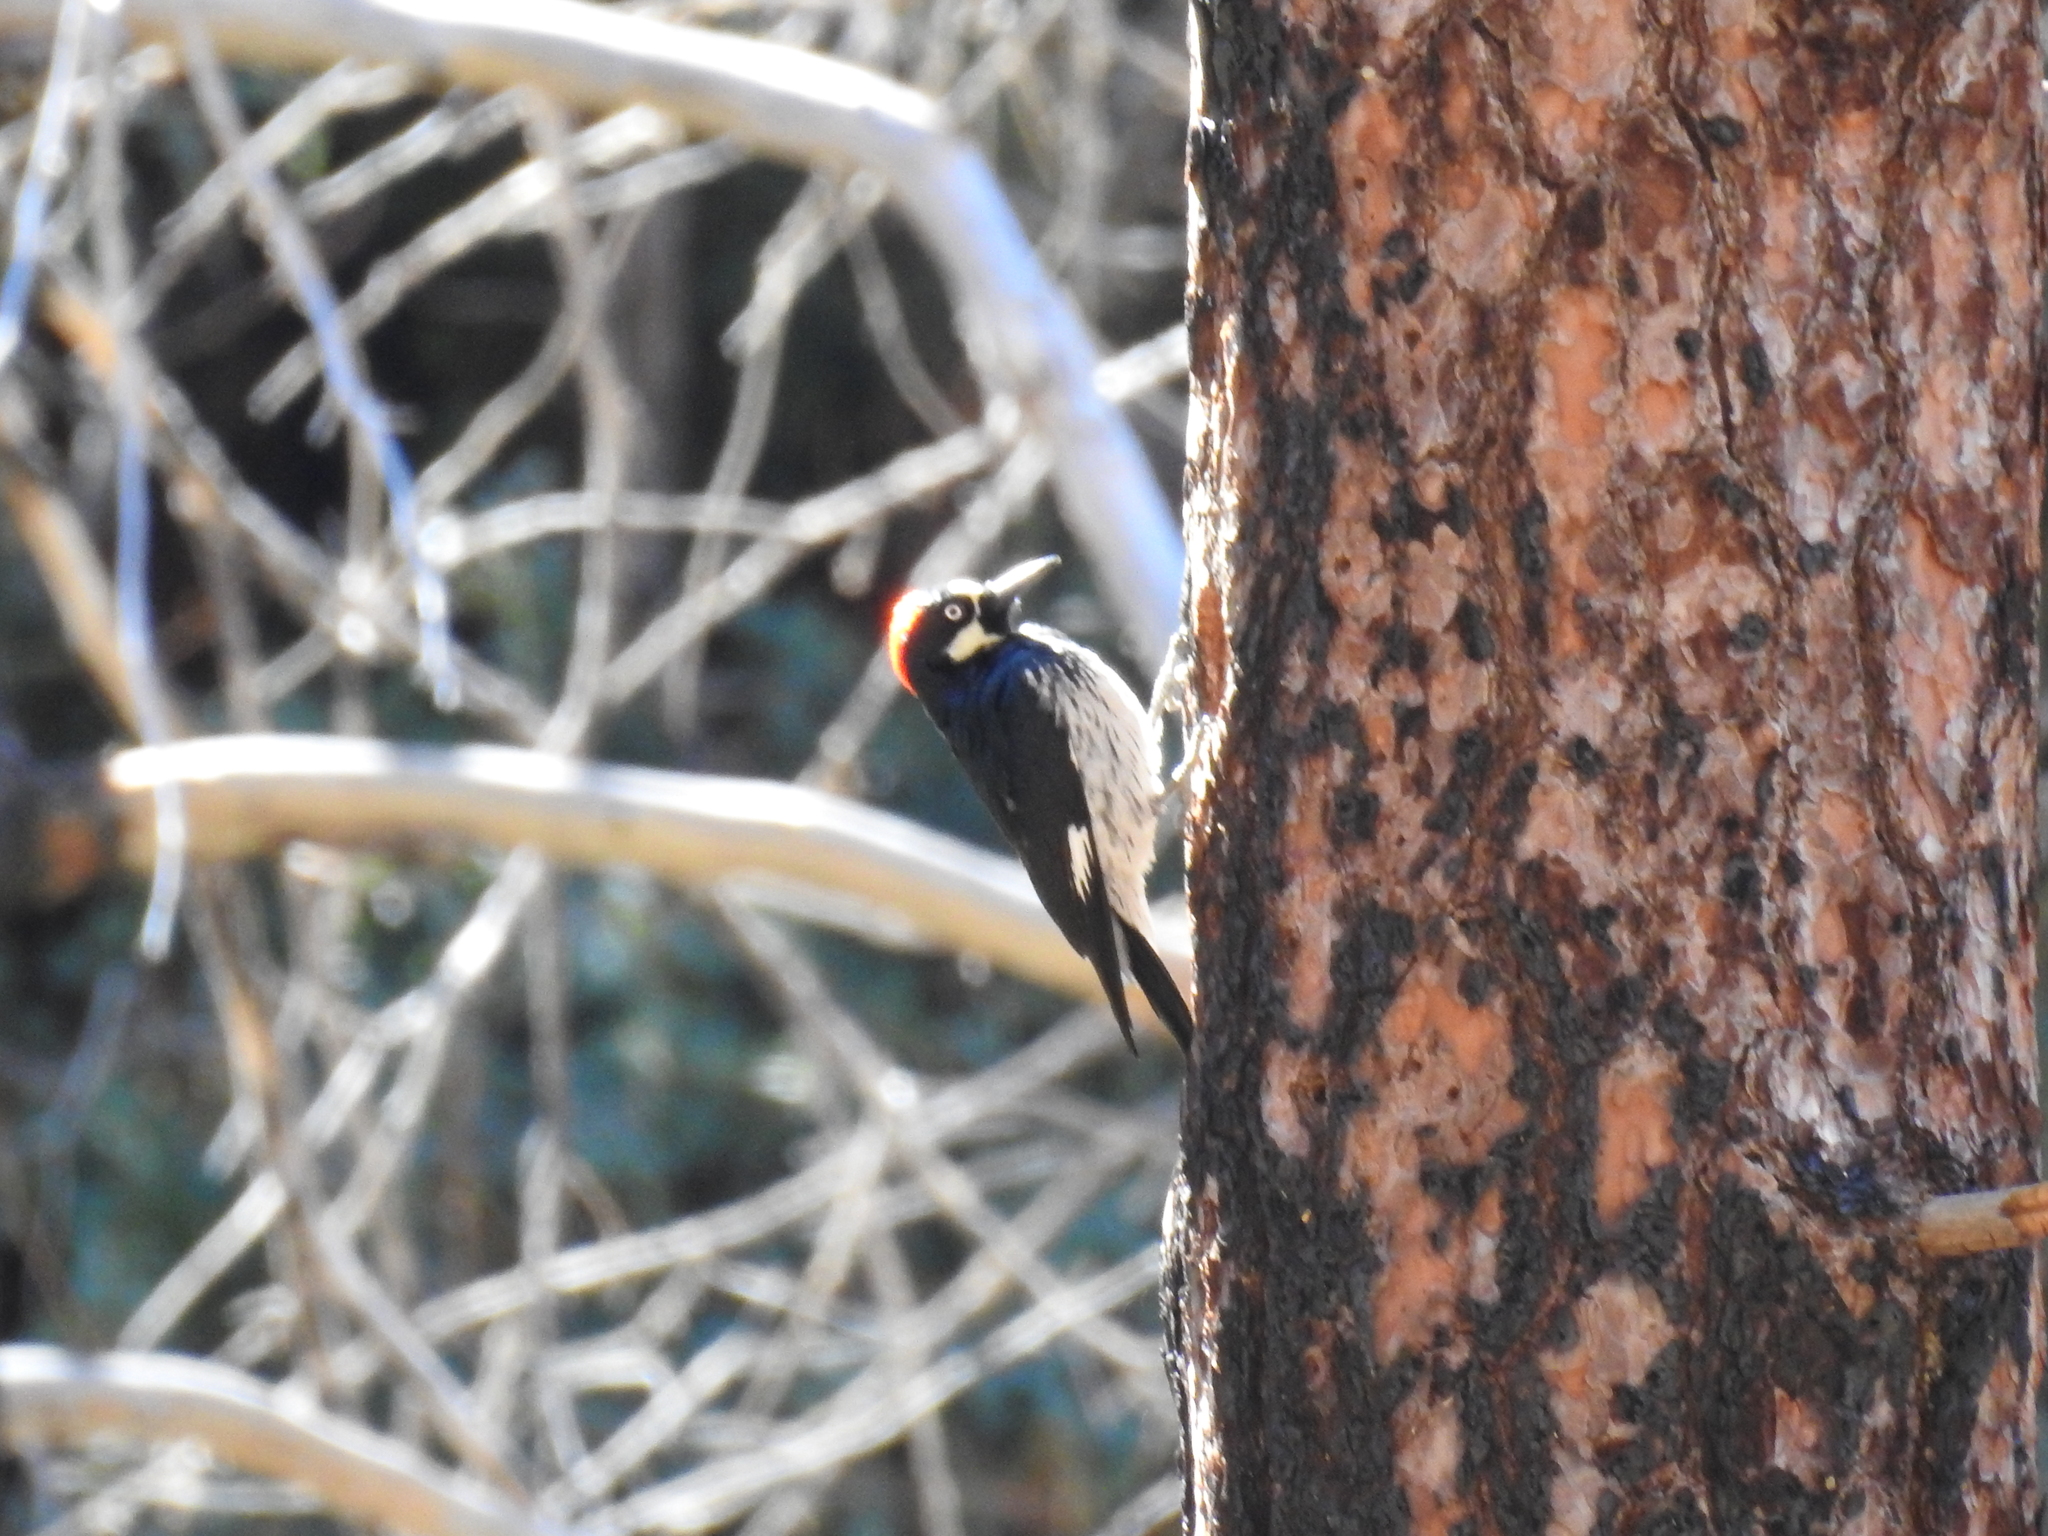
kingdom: Animalia
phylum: Chordata
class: Aves
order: Piciformes
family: Picidae
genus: Melanerpes
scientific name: Melanerpes formicivorus
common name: Acorn woodpecker
